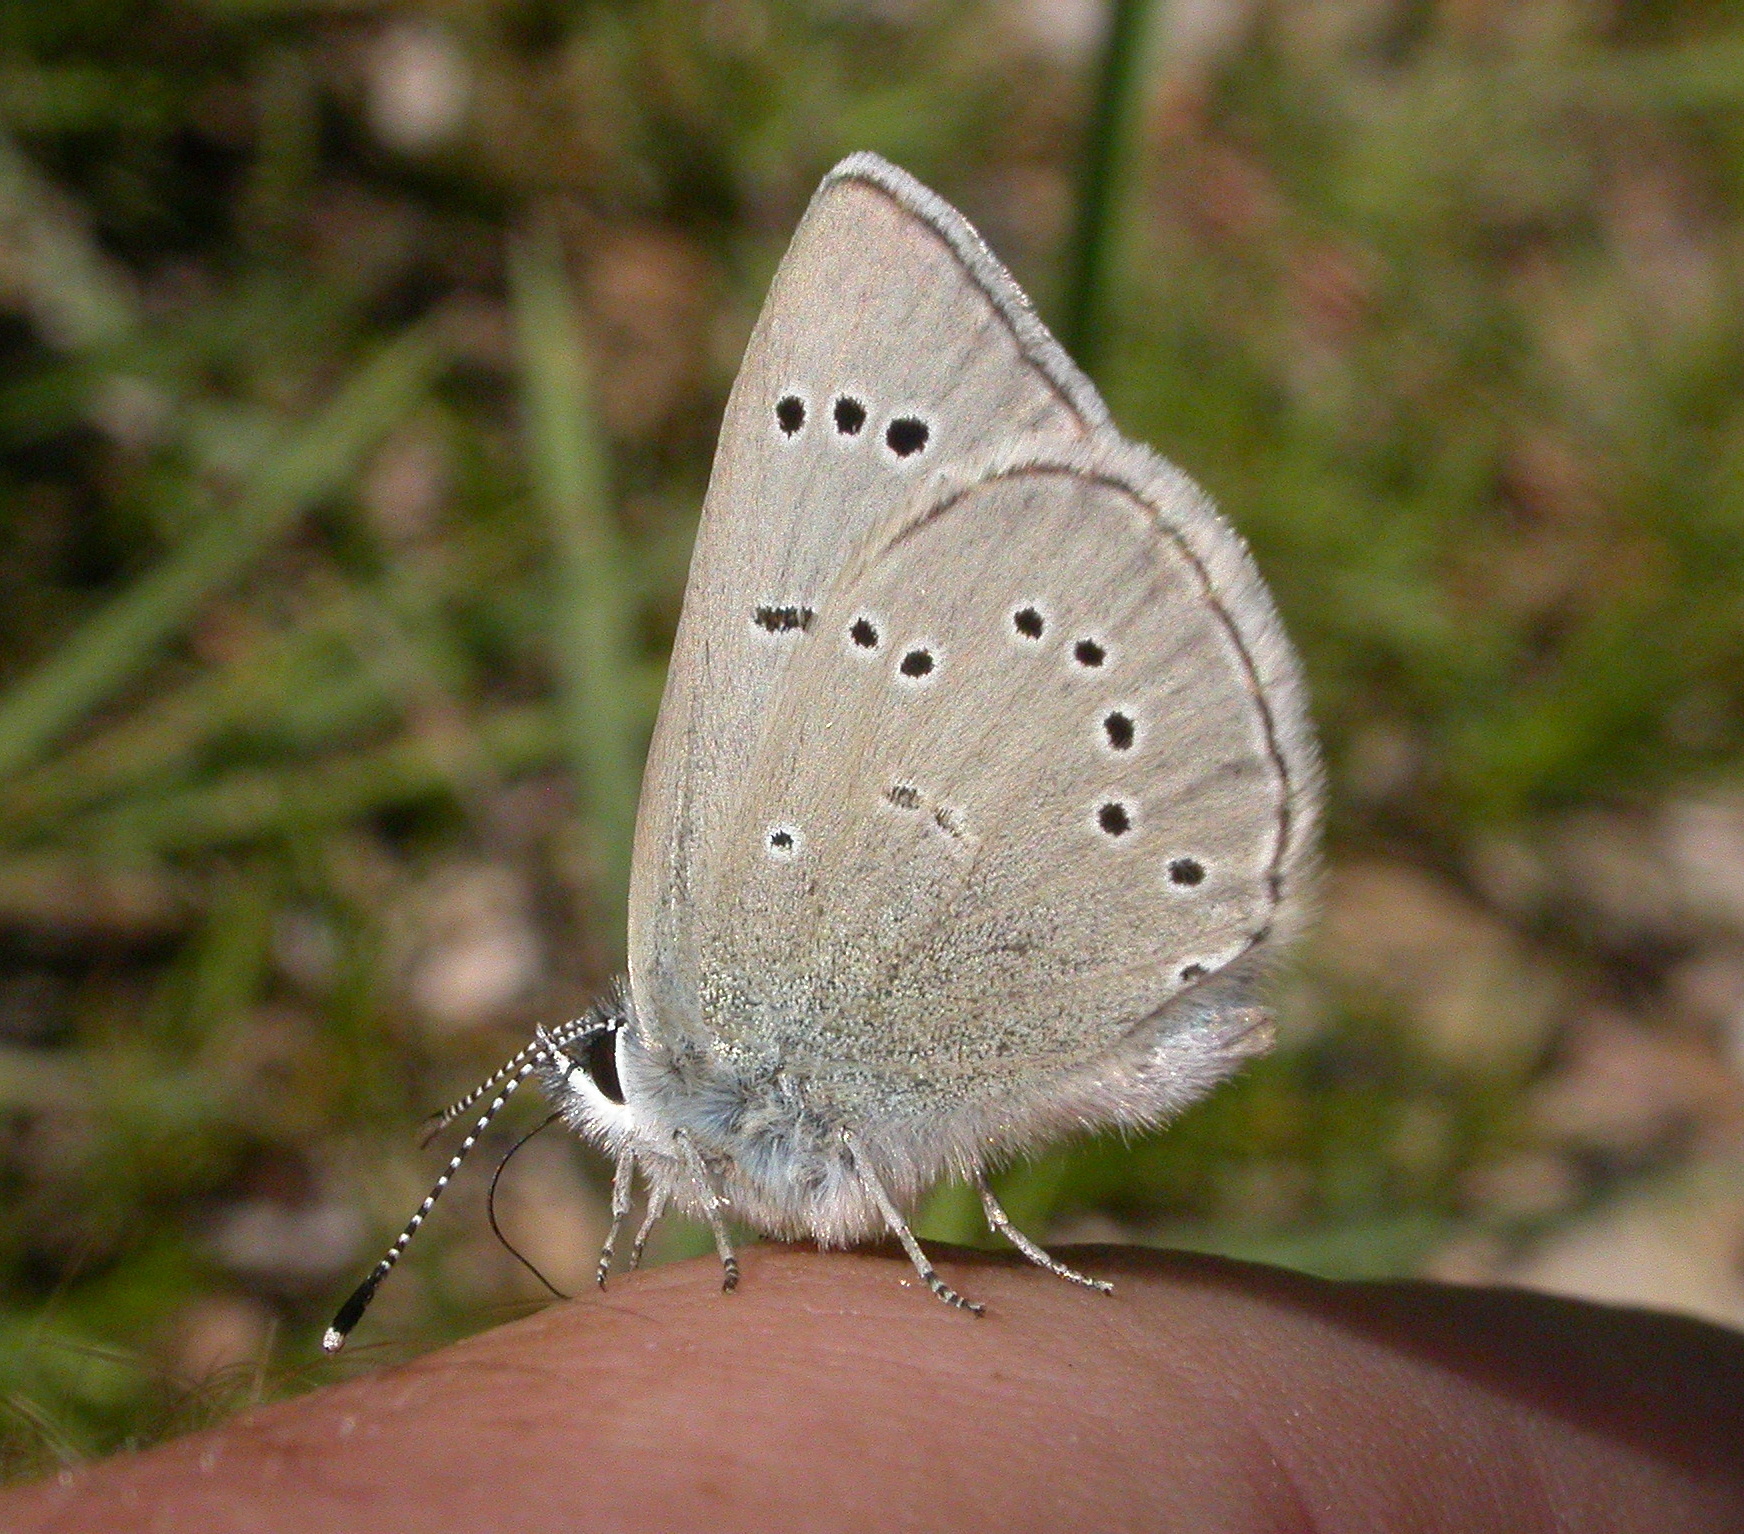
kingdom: Animalia
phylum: Arthropoda
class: Insecta
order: Lepidoptera
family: Lycaenidae
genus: Glaucopsyche
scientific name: Glaucopsyche lygdamus
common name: Silvery blue
